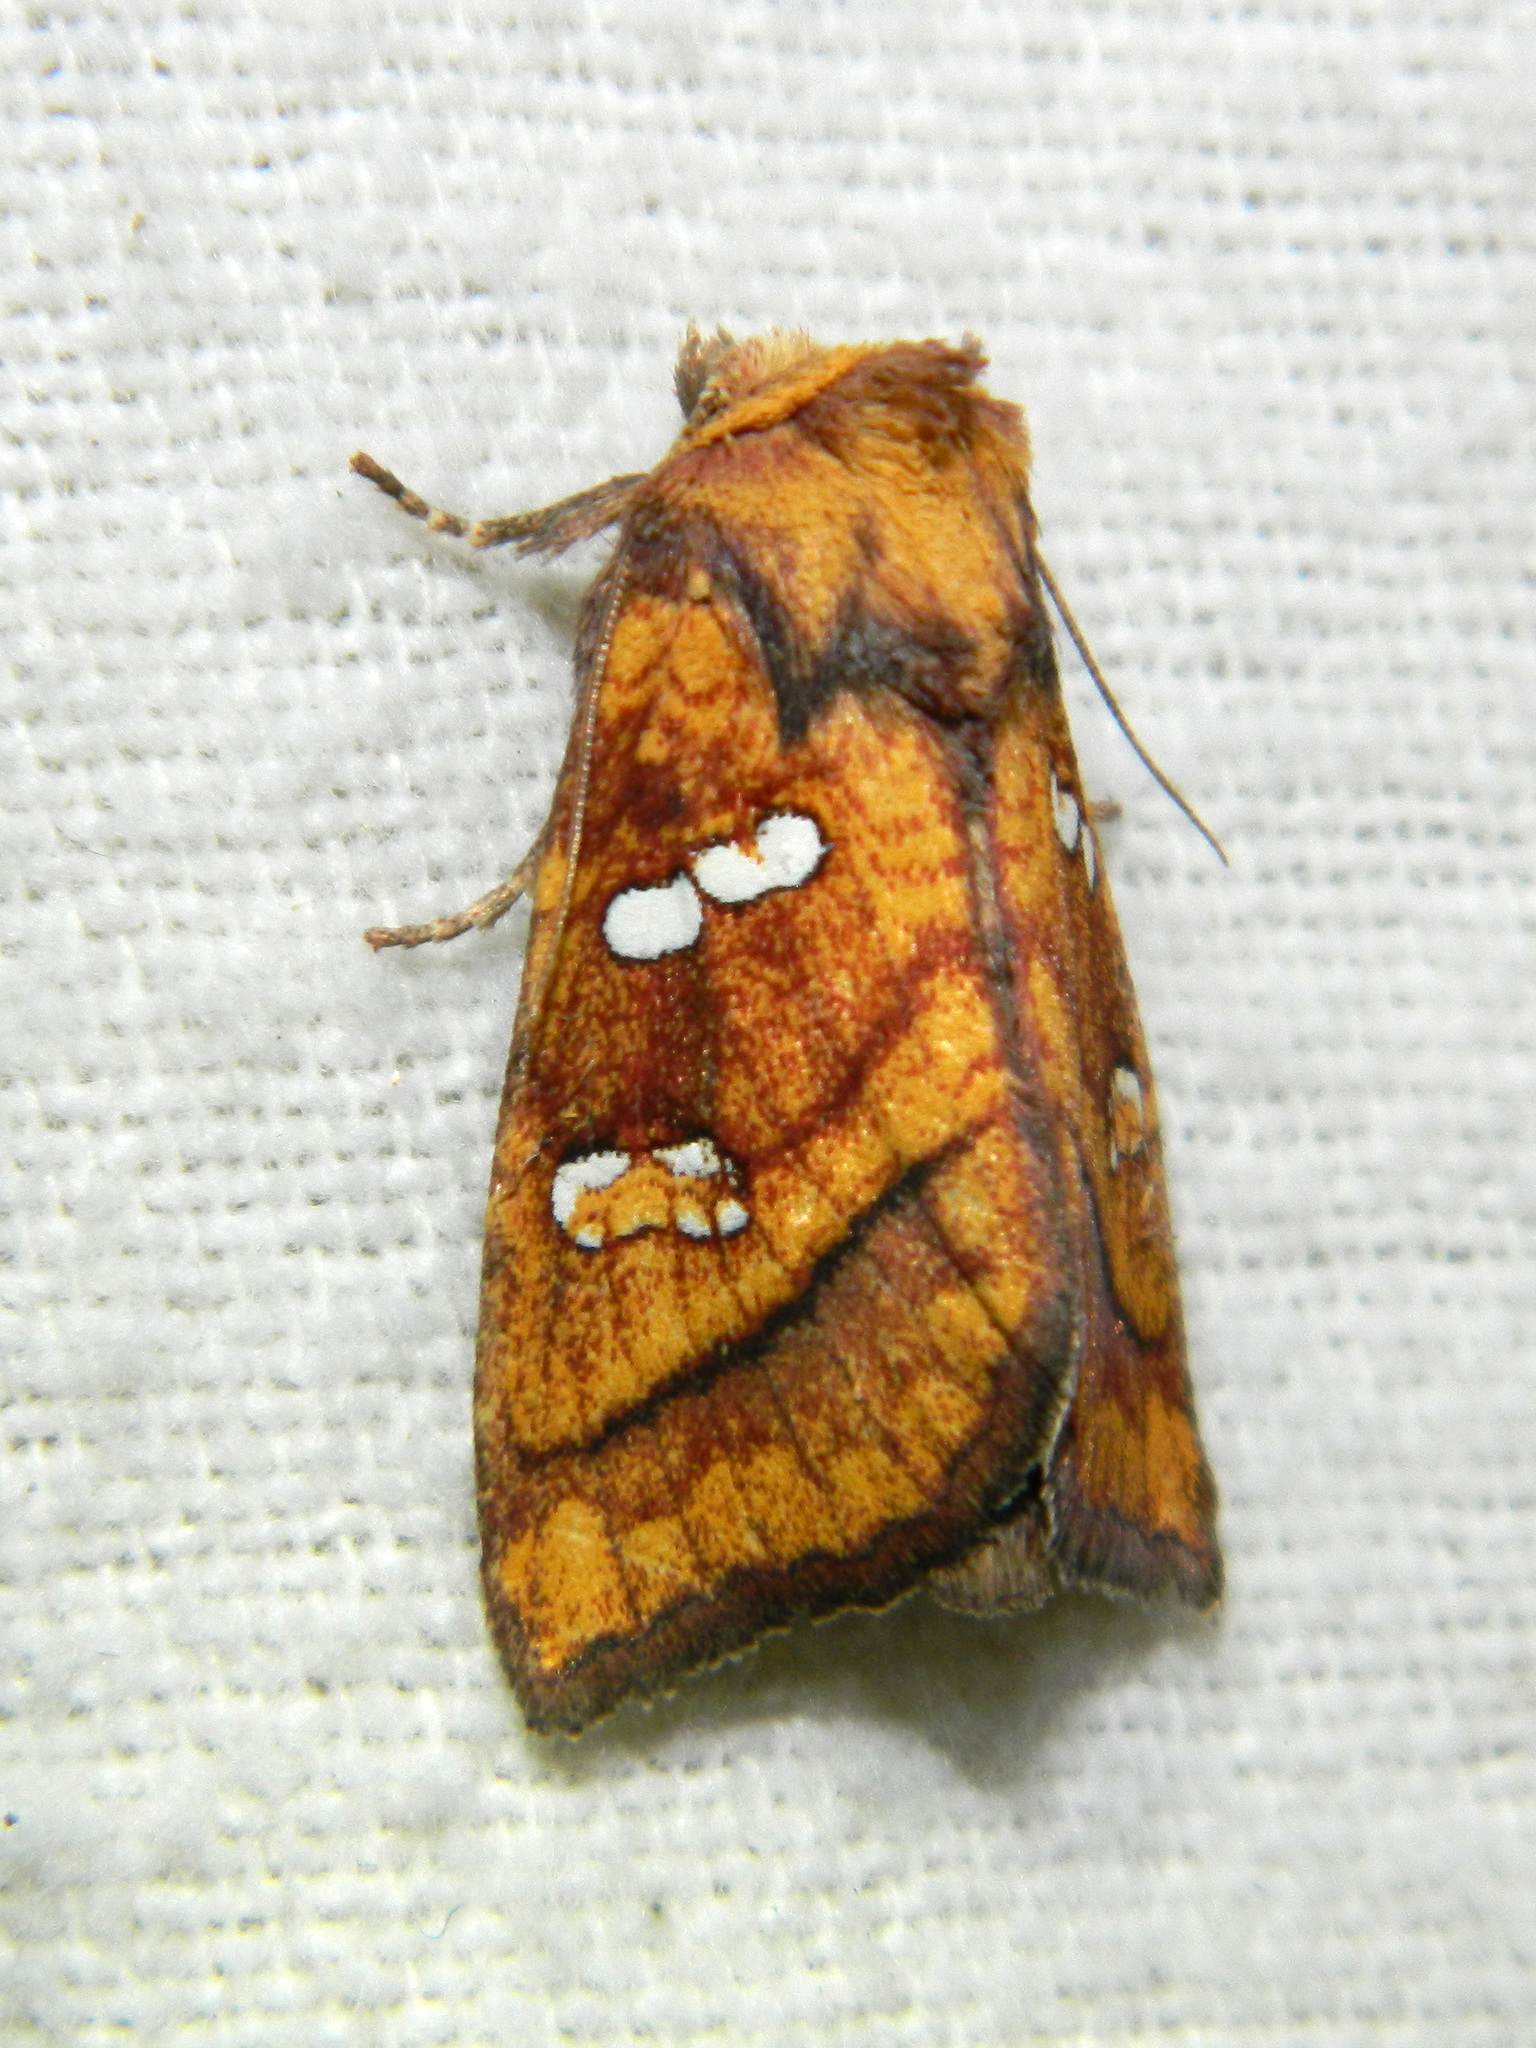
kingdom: Animalia
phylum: Arthropoda
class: Insecta
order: Lepidoptera
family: Noctuidae
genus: Papaipema
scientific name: Papaipema pterisii
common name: Bracken borer moth
